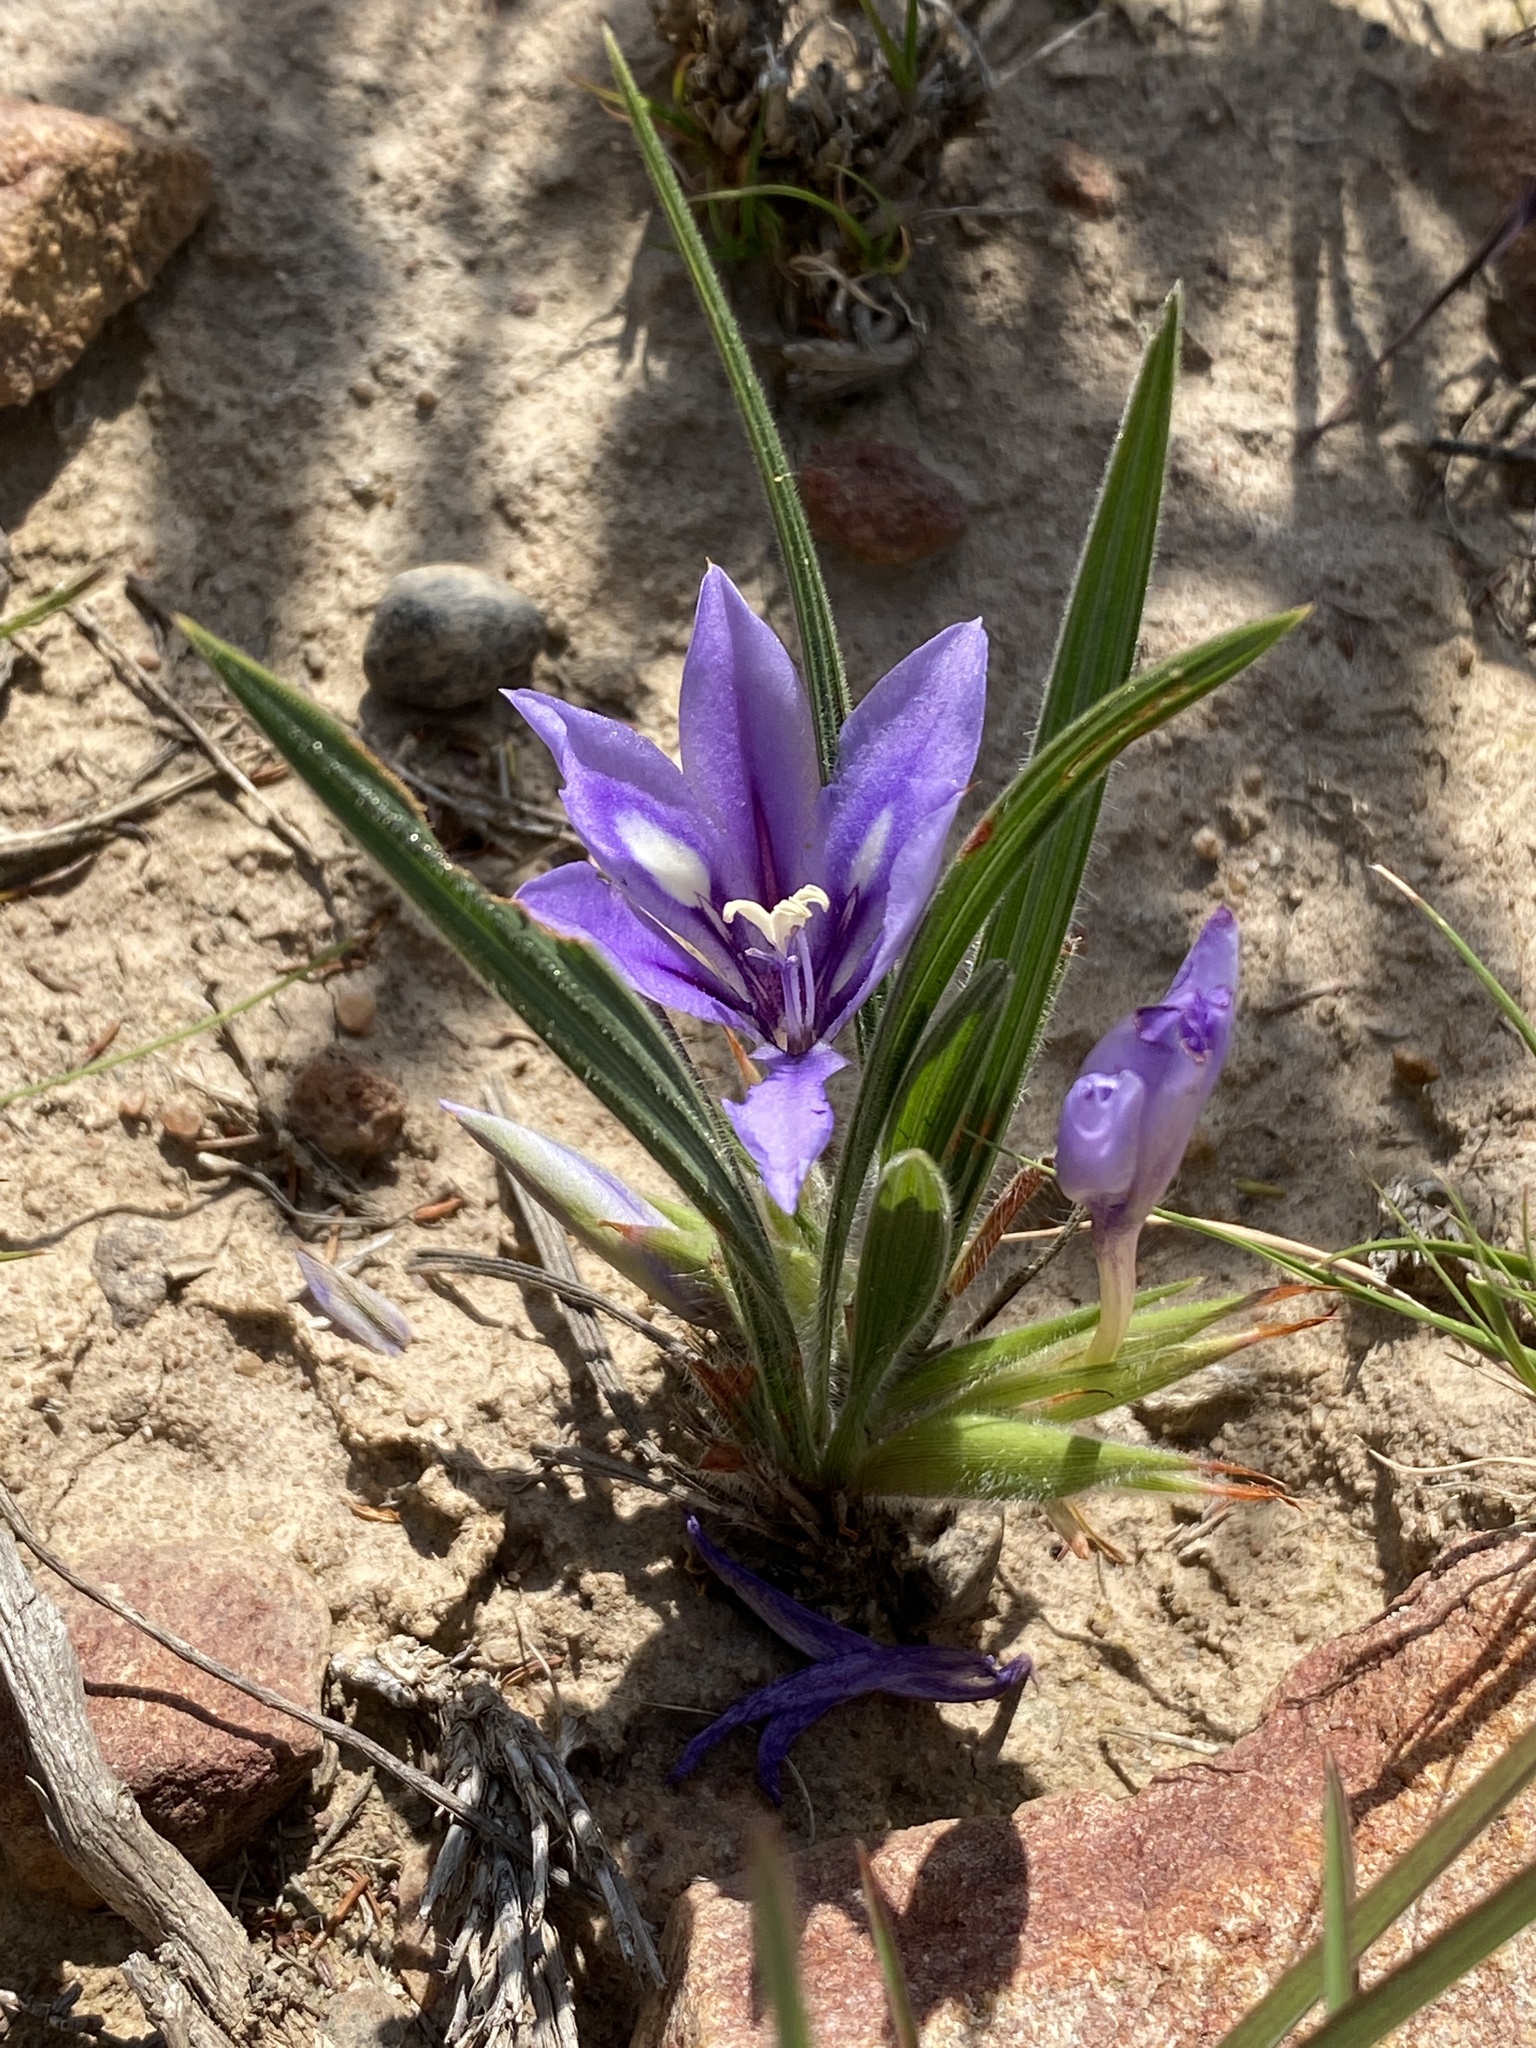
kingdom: Plantae
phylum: Tracheophyta
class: Liliopsida
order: Asparagales
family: Iridaceae
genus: Babiana
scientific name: Babiana sambucina
